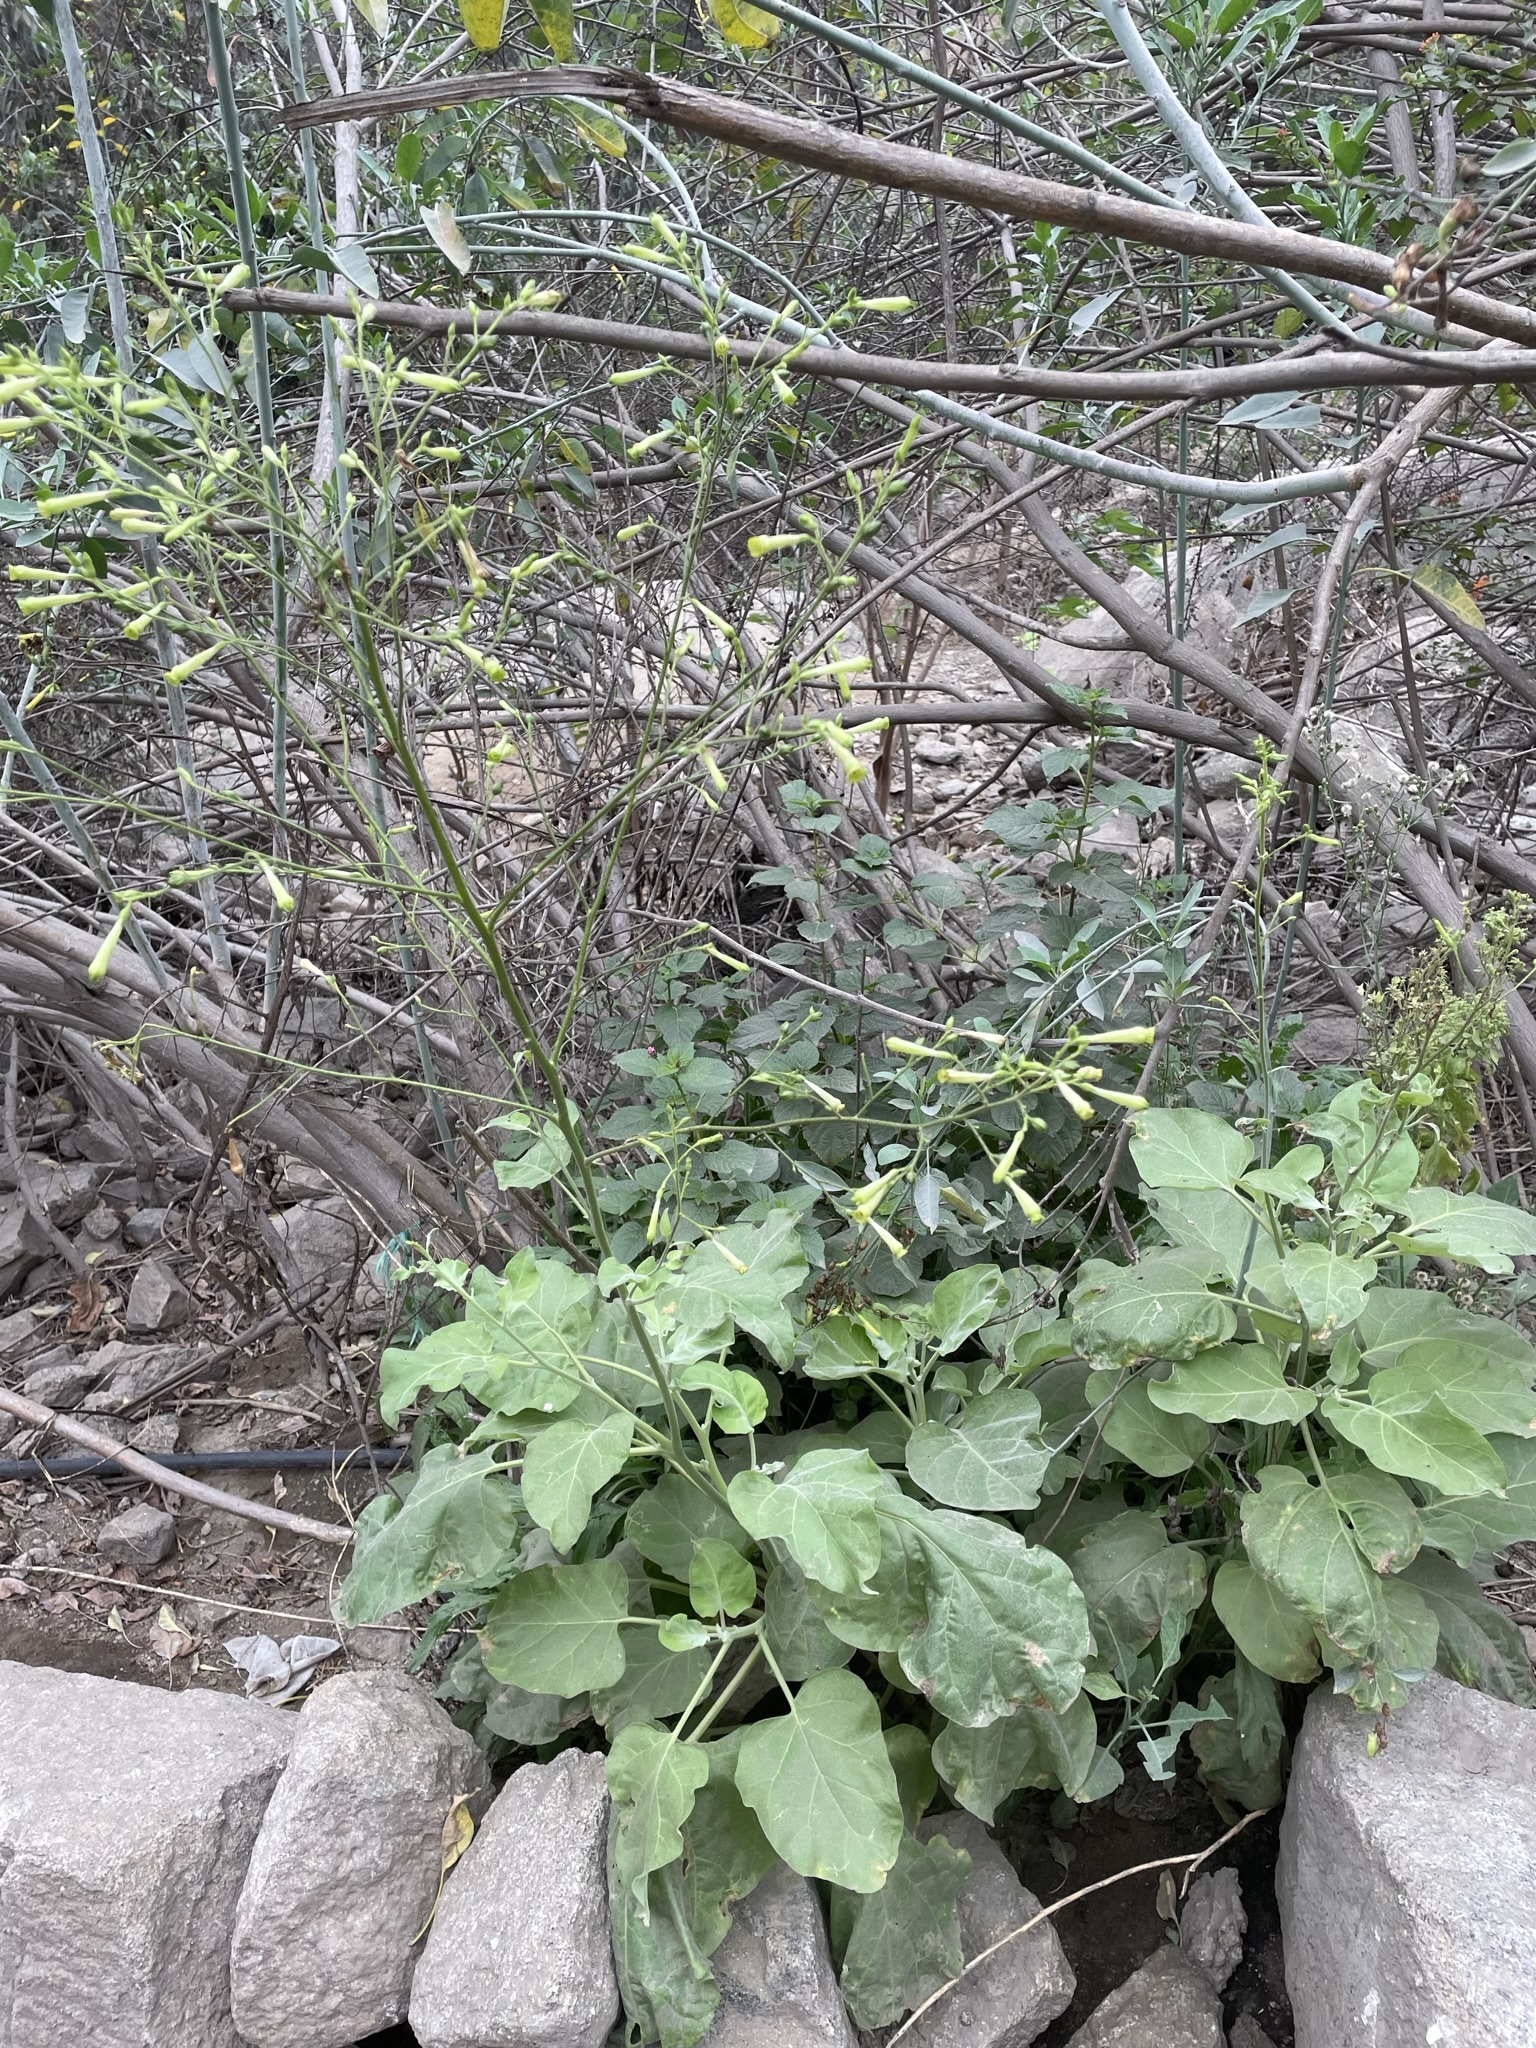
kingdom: Plantae
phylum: Tracheophyta
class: Magnoliopsida
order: Solanales
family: Solanaceae
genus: Nicotiana
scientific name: Nicotiana paniculata
